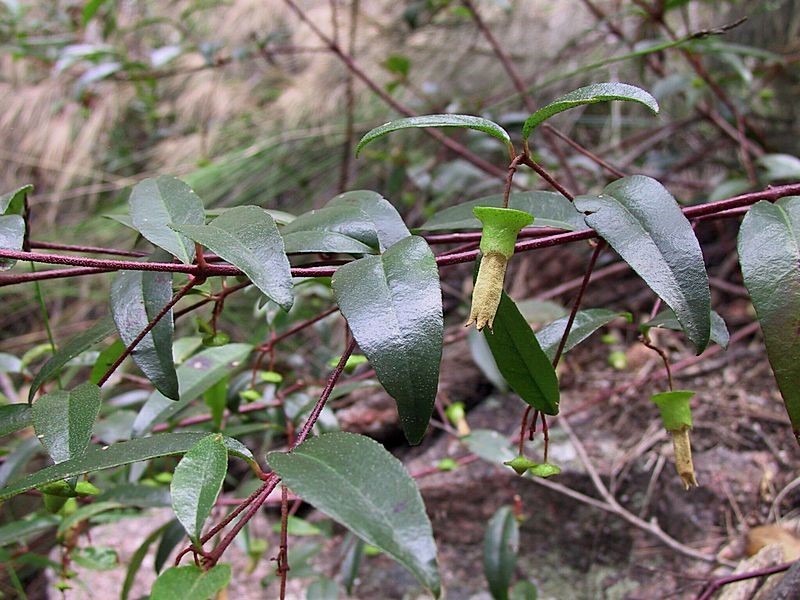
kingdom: Plantae
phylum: Tracheophyta
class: Magnoliopsida
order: Sapindales
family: Rutaceae
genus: Correa
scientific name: Correa baeuerlenii
